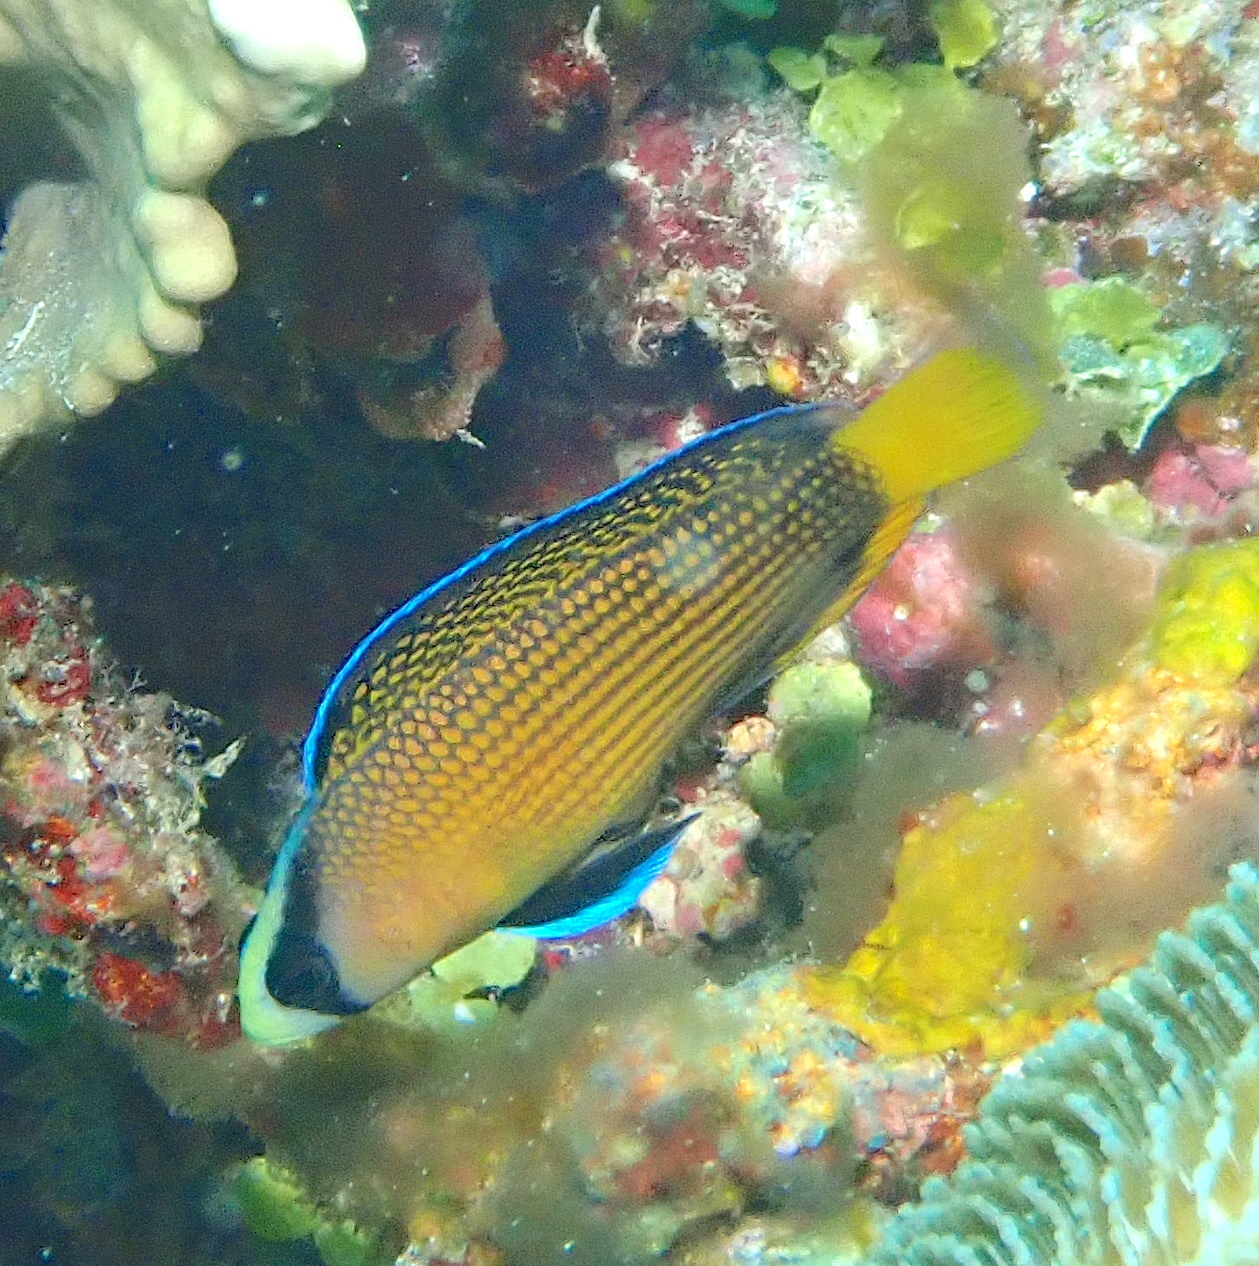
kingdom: Animalia
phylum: Chordata
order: Perciformes
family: Pseudochromidae
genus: Manonichthys
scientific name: Manonichthys splendens
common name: Splendid dottyback
